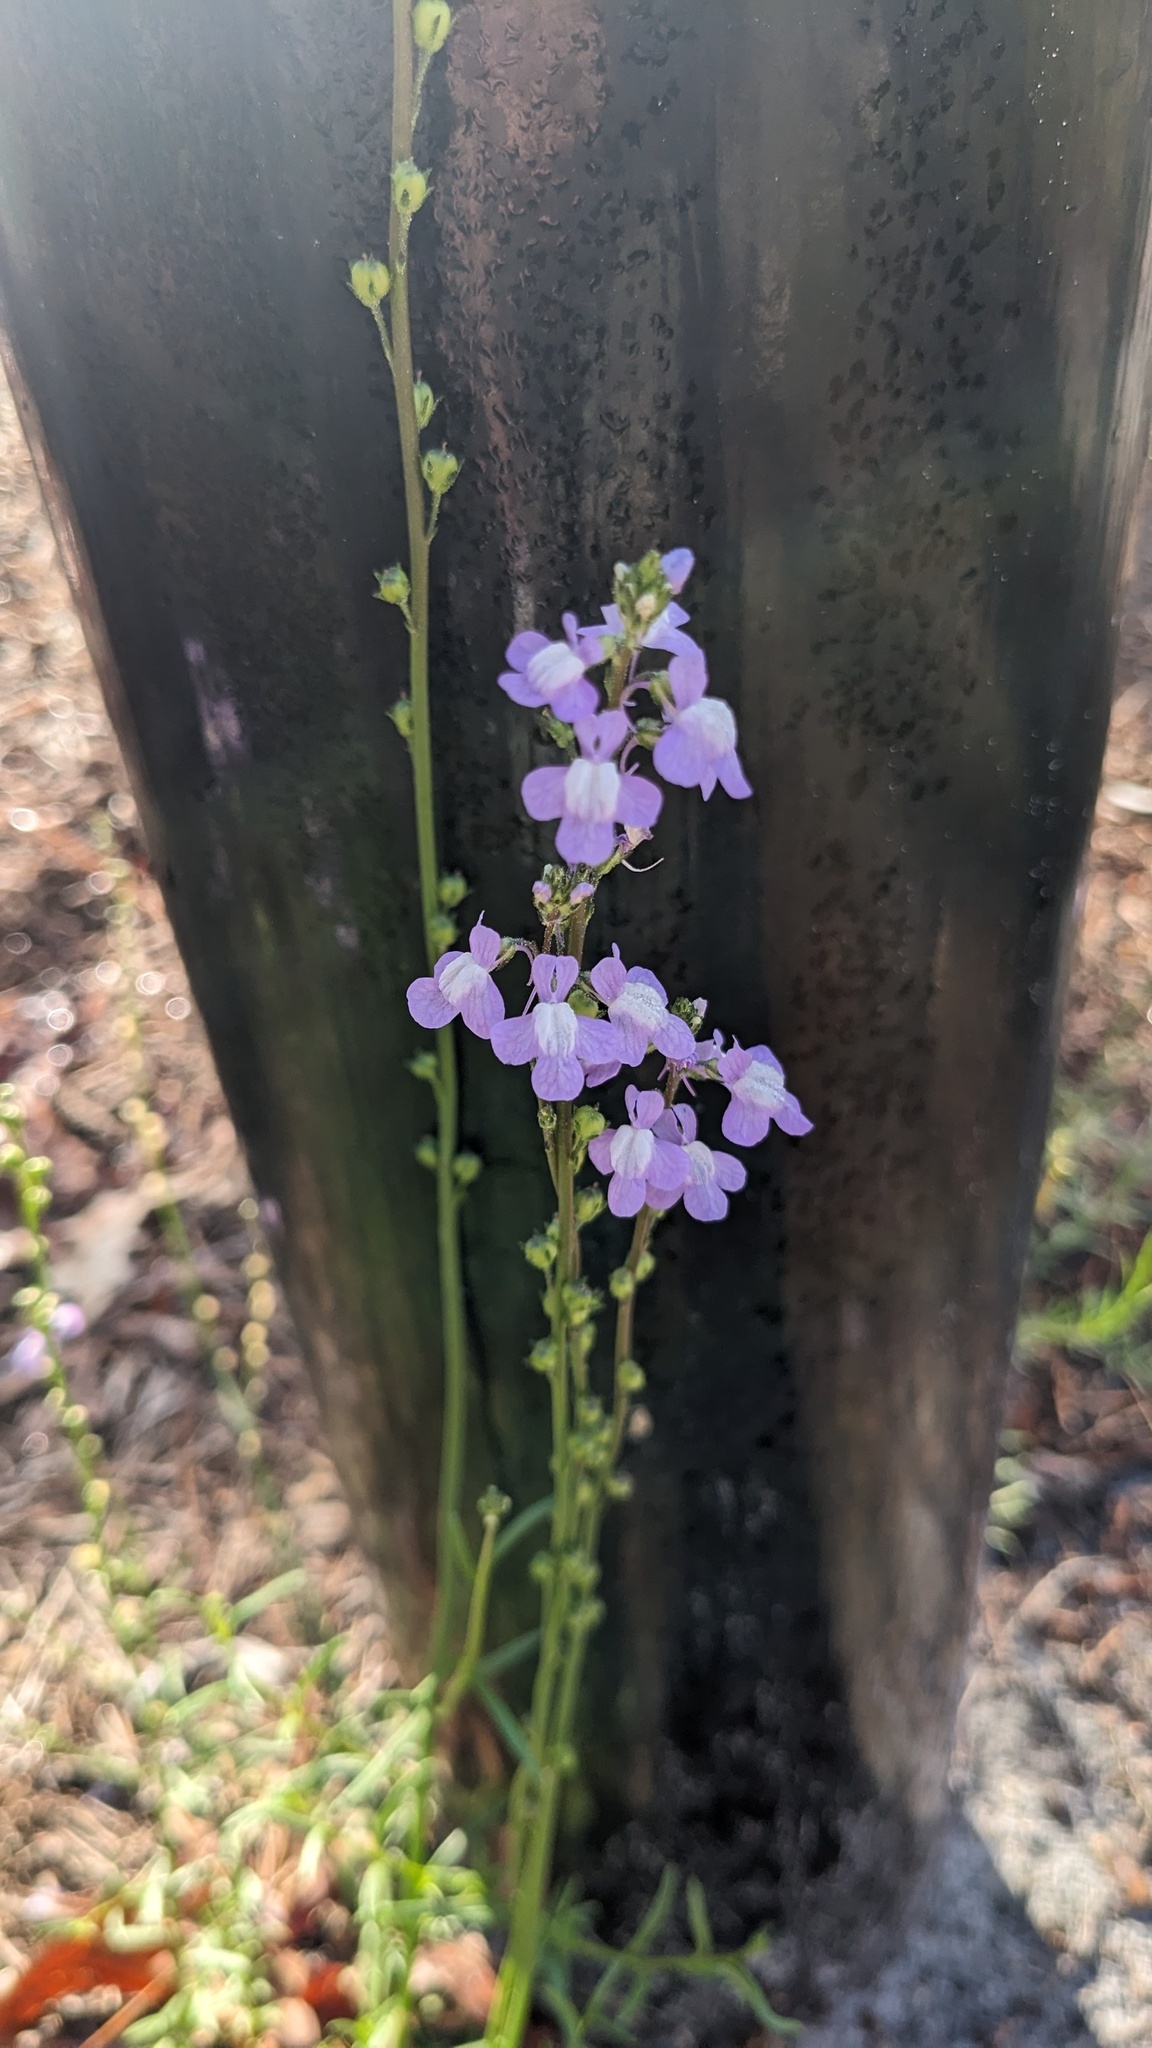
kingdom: Plantae
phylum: Tracheophyta
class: Magnoliopsida
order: Lamiales
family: Plantaginaceae
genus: Nuttallanthus
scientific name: Nuttallanthus canadensis
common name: Blue toadflax
